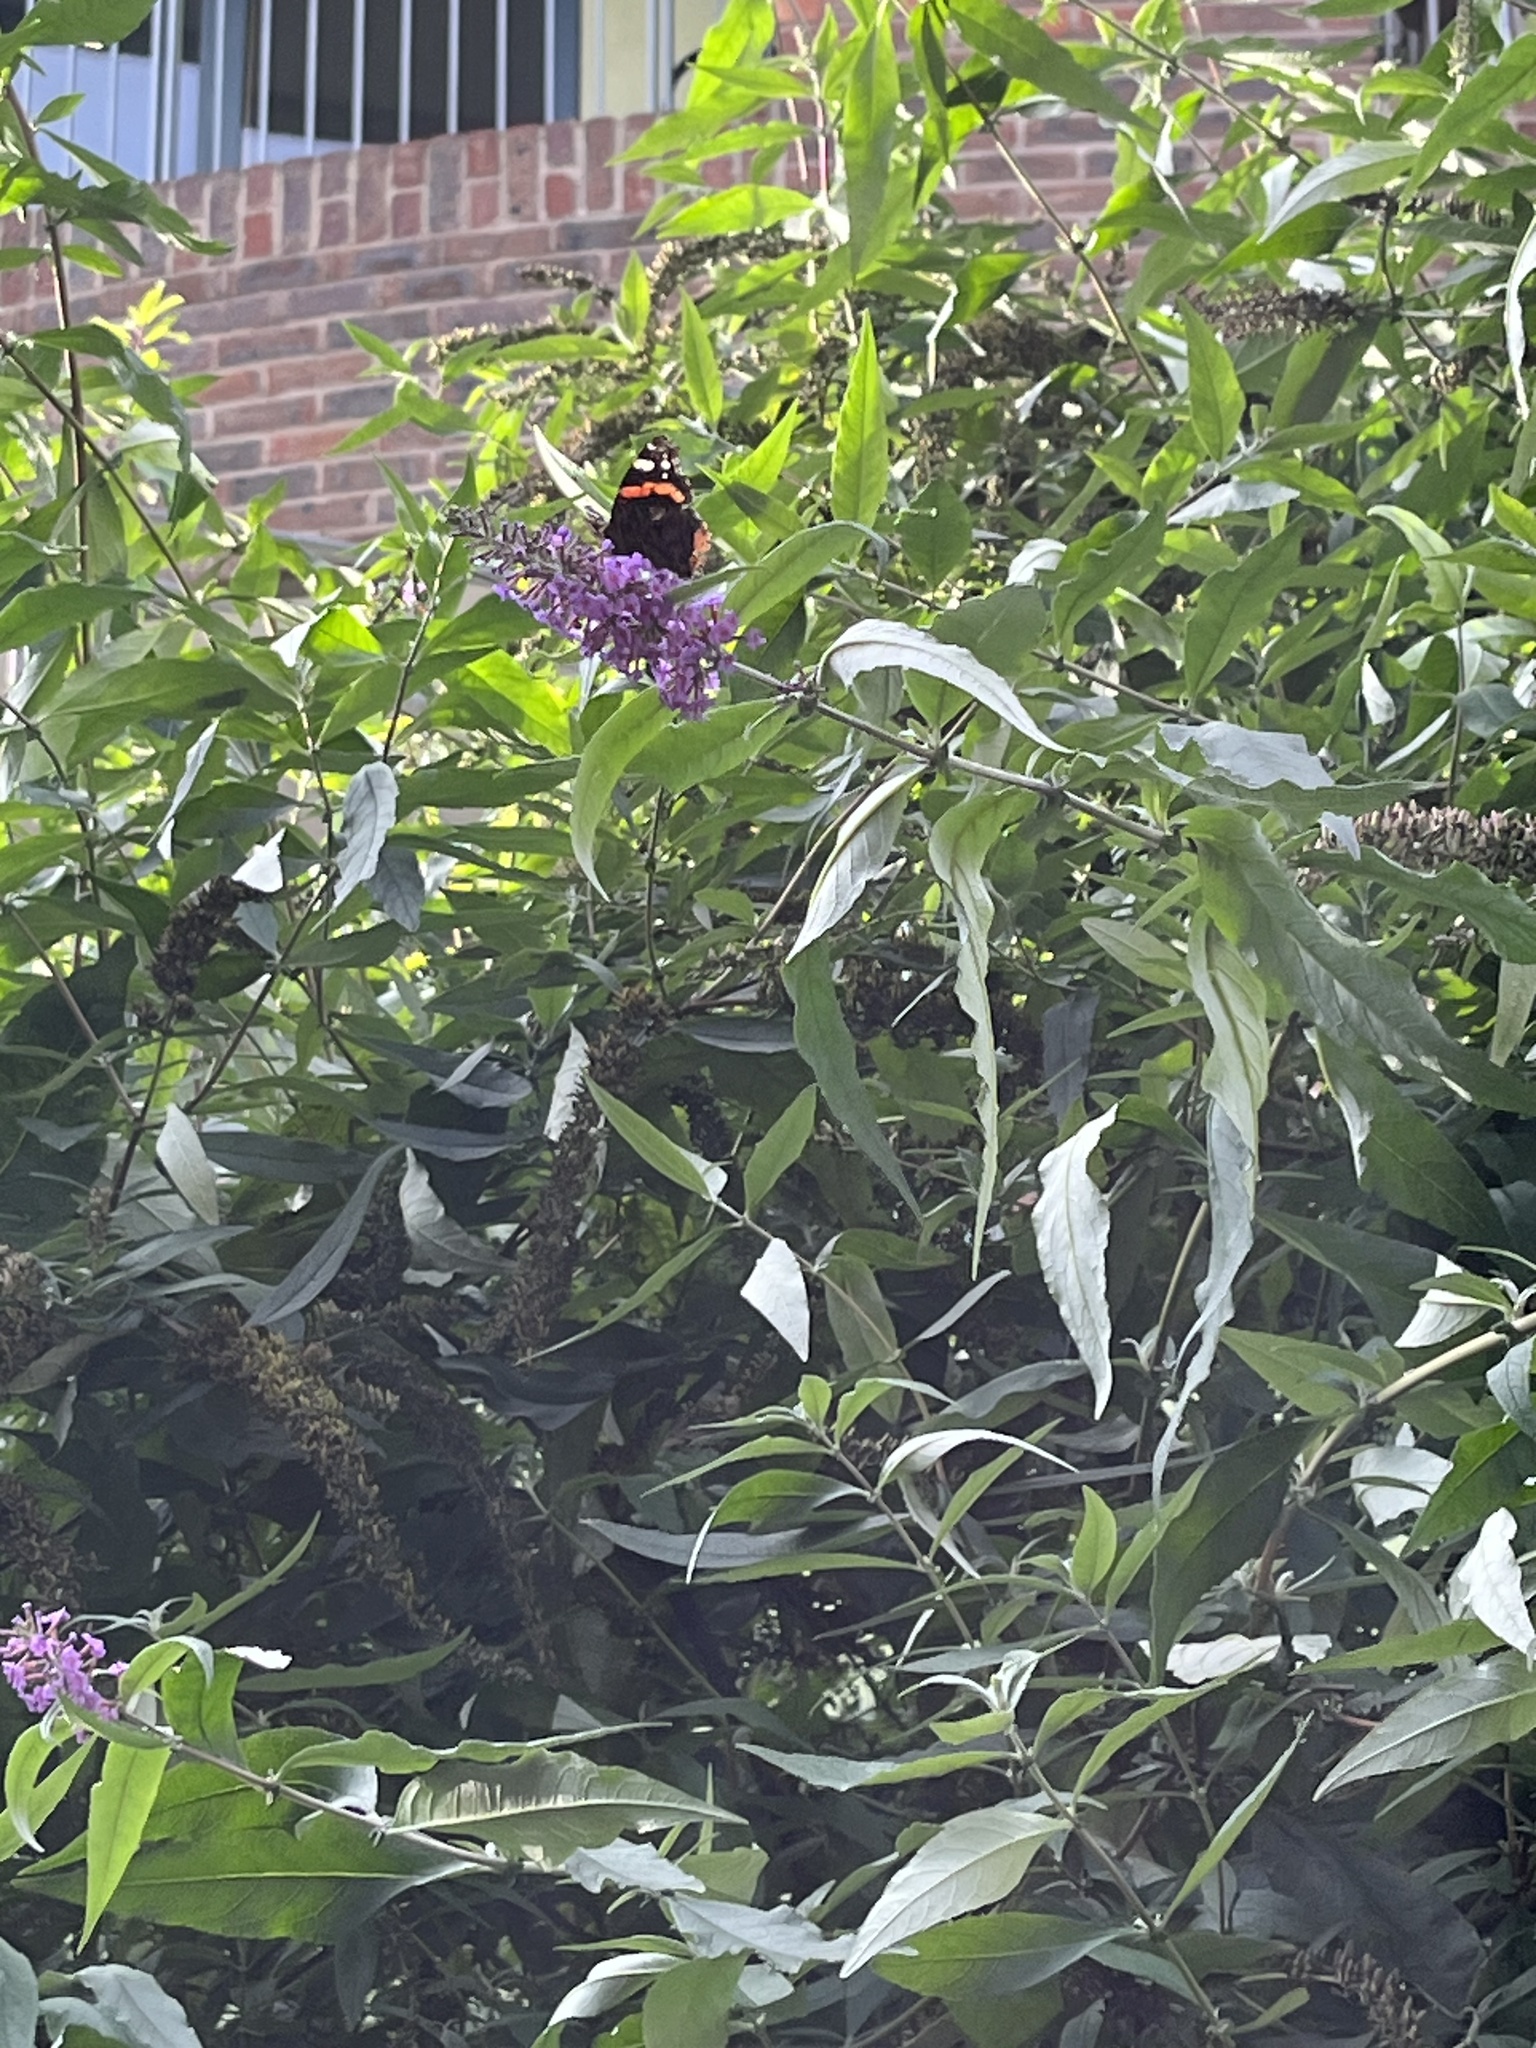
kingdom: Animalia
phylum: Arthropoda
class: Insecta
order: Lepidoptera
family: Nymphalidae
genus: Vanessa
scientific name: Vanessa atalanta
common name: Red admiral
